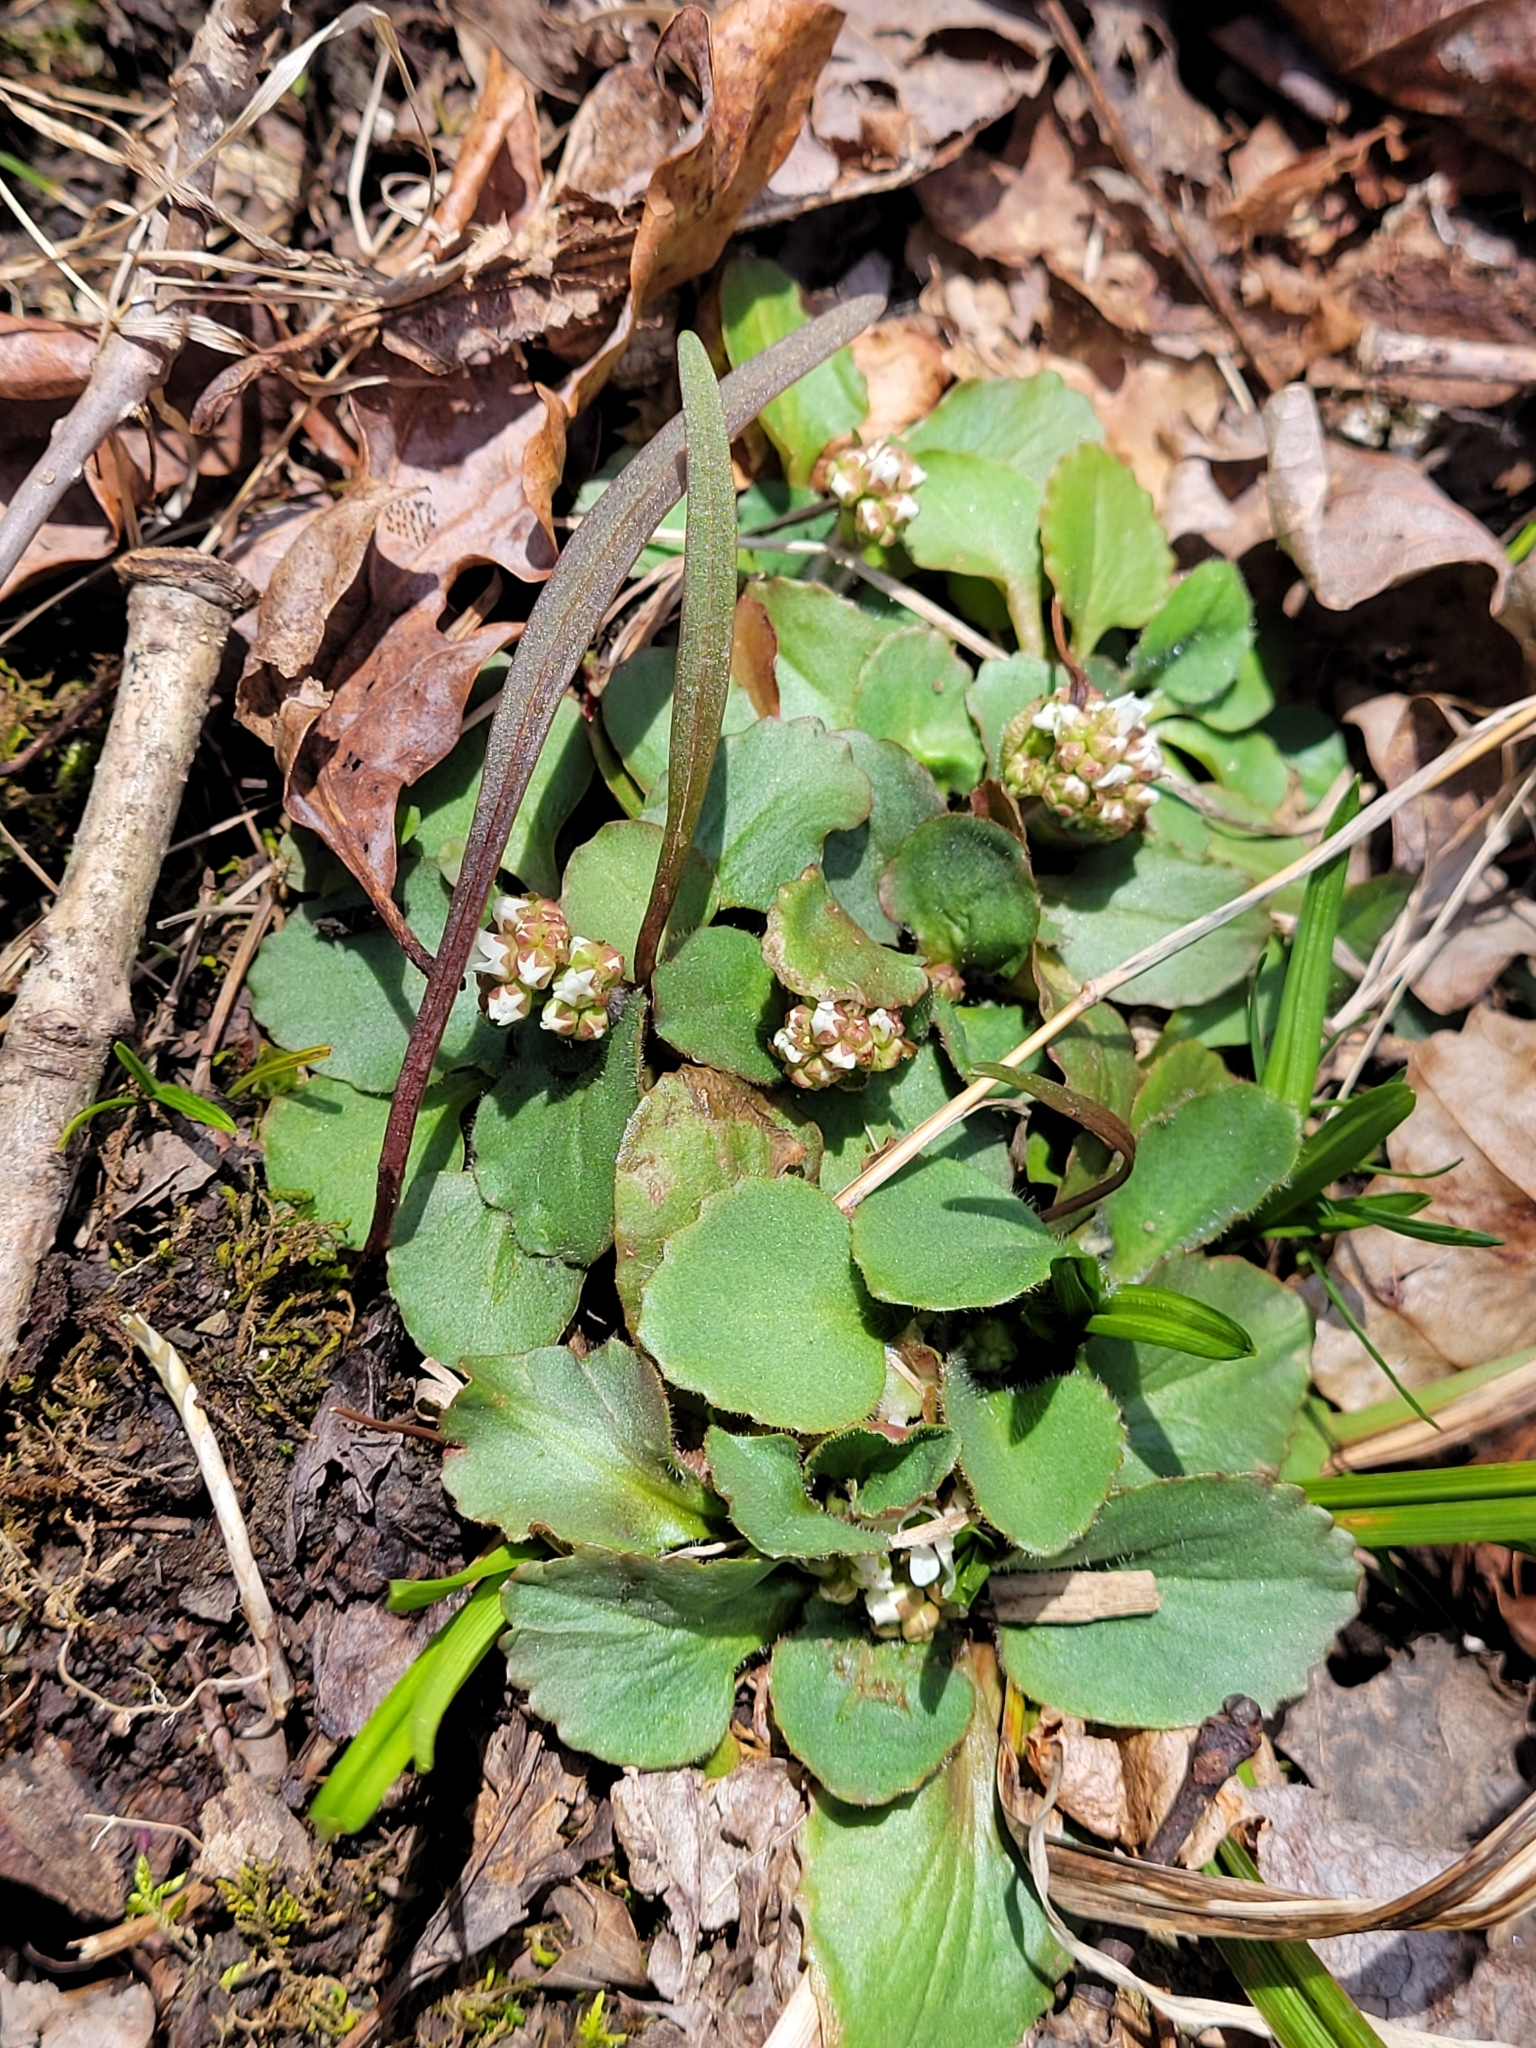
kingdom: Plantae
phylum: Tracheophyta
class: Magnoliopsida
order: Saxifragales
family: Saxifragaceae
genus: Micranthes
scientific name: Micranthes virginiensis
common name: Early saxifrage
